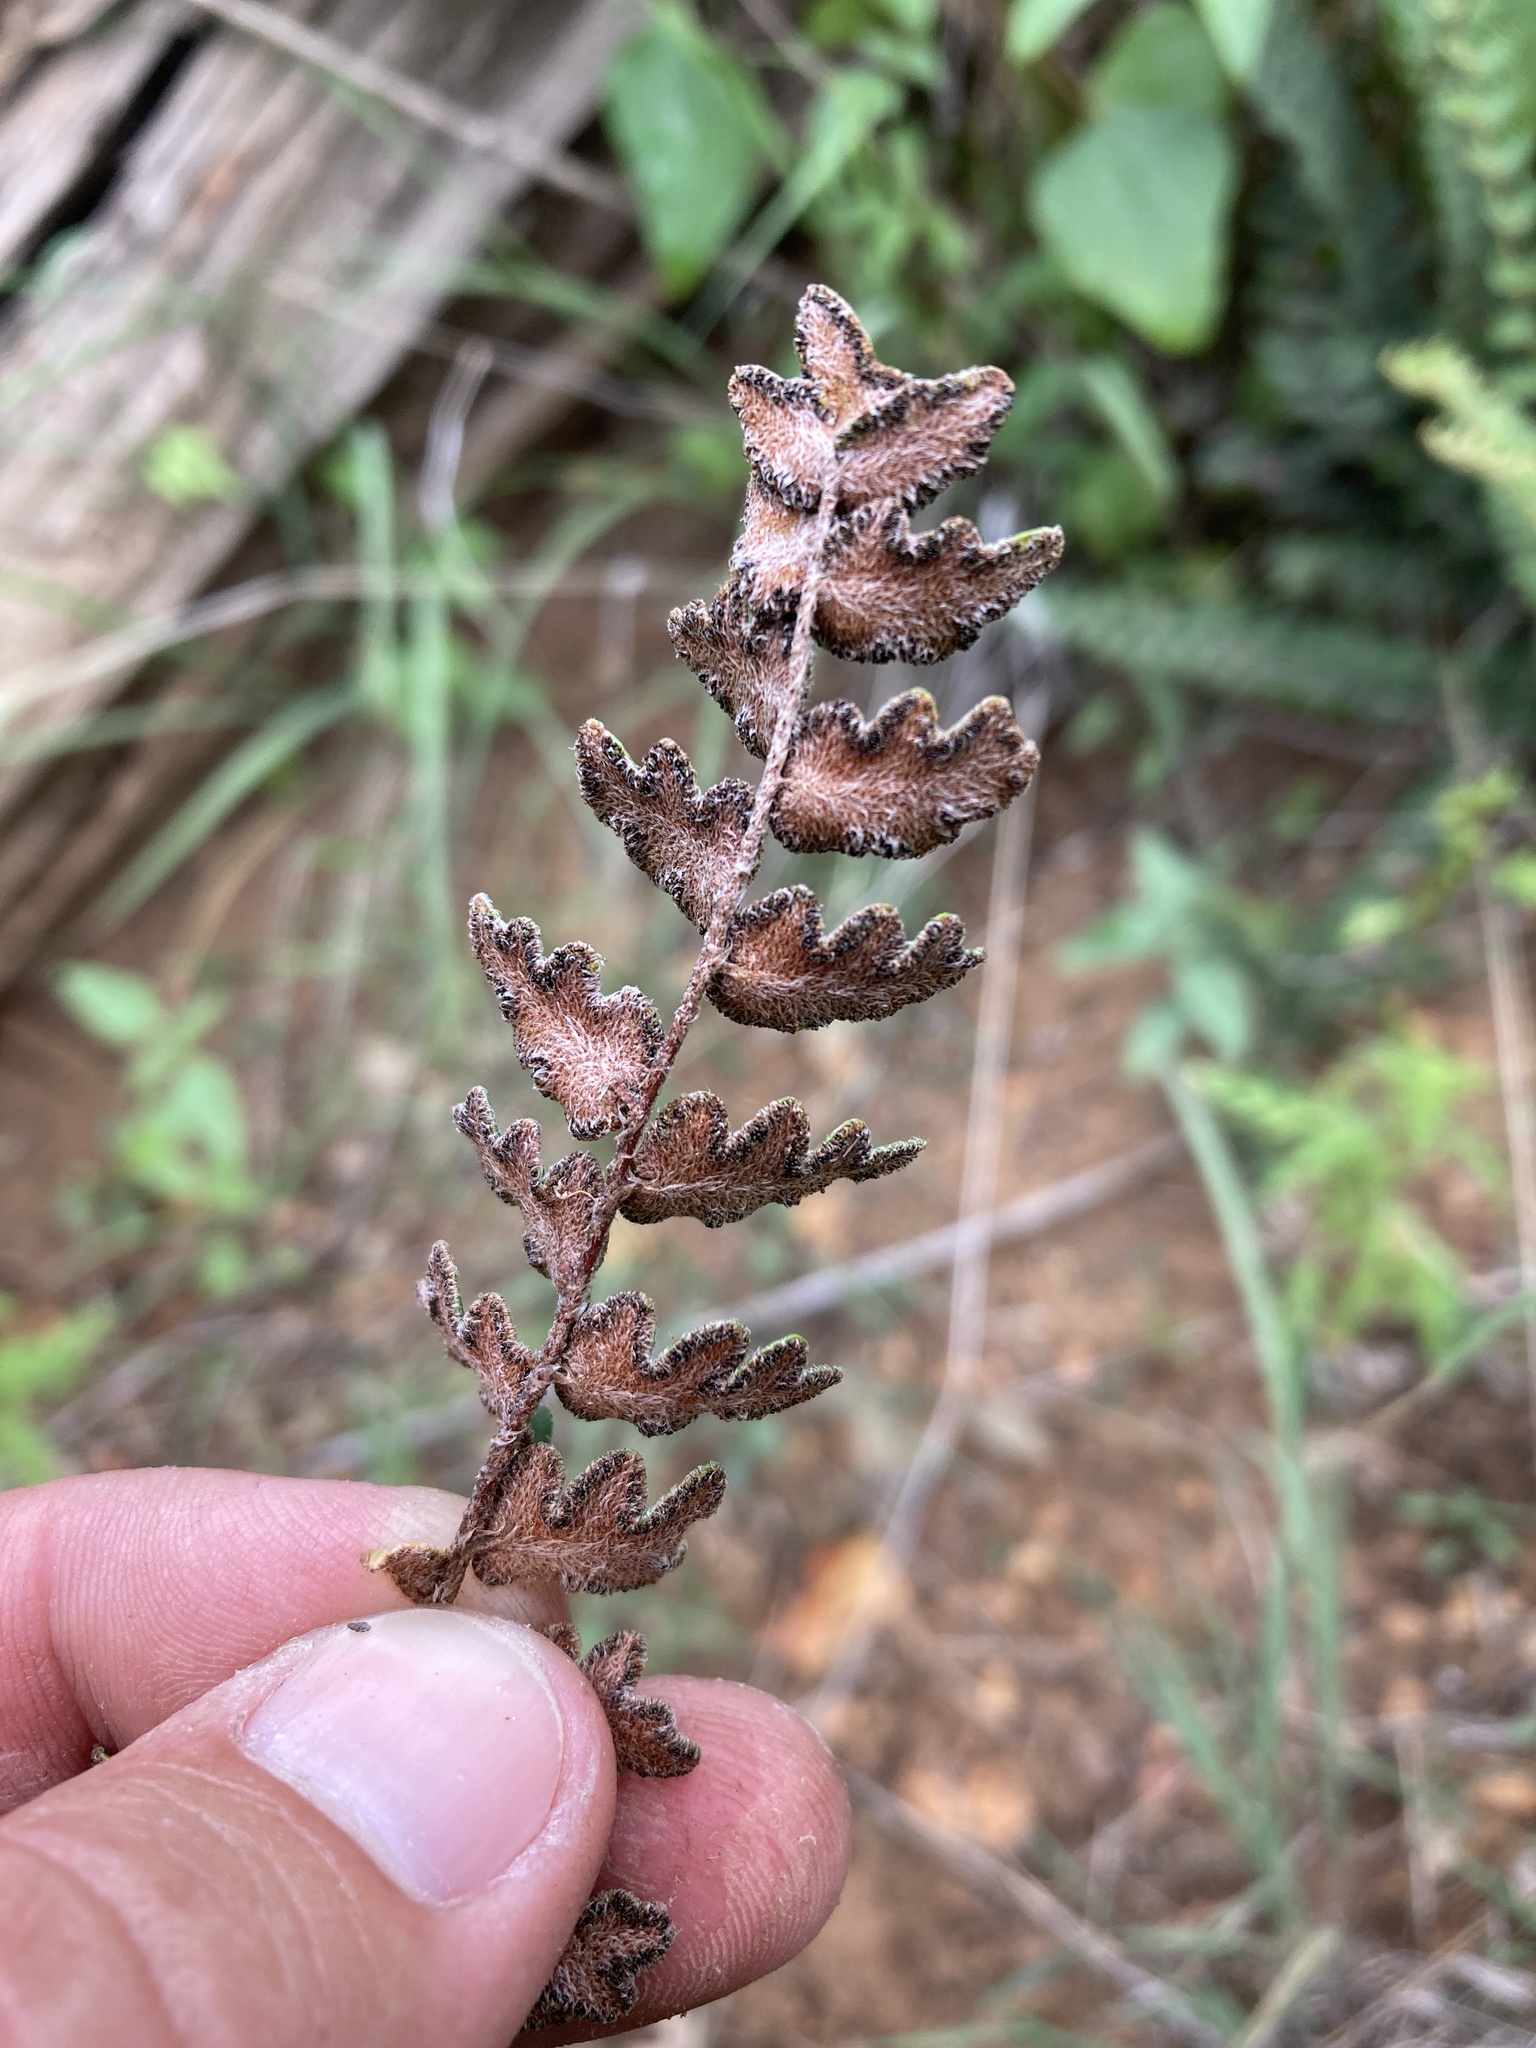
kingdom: Plantae
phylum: Tracheophyta
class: Polypodiopsida
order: Polypodiales
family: Pteridaceae
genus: Astrolepis
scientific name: Astrolepis sinuata
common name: Wavy scaly cloakfern
